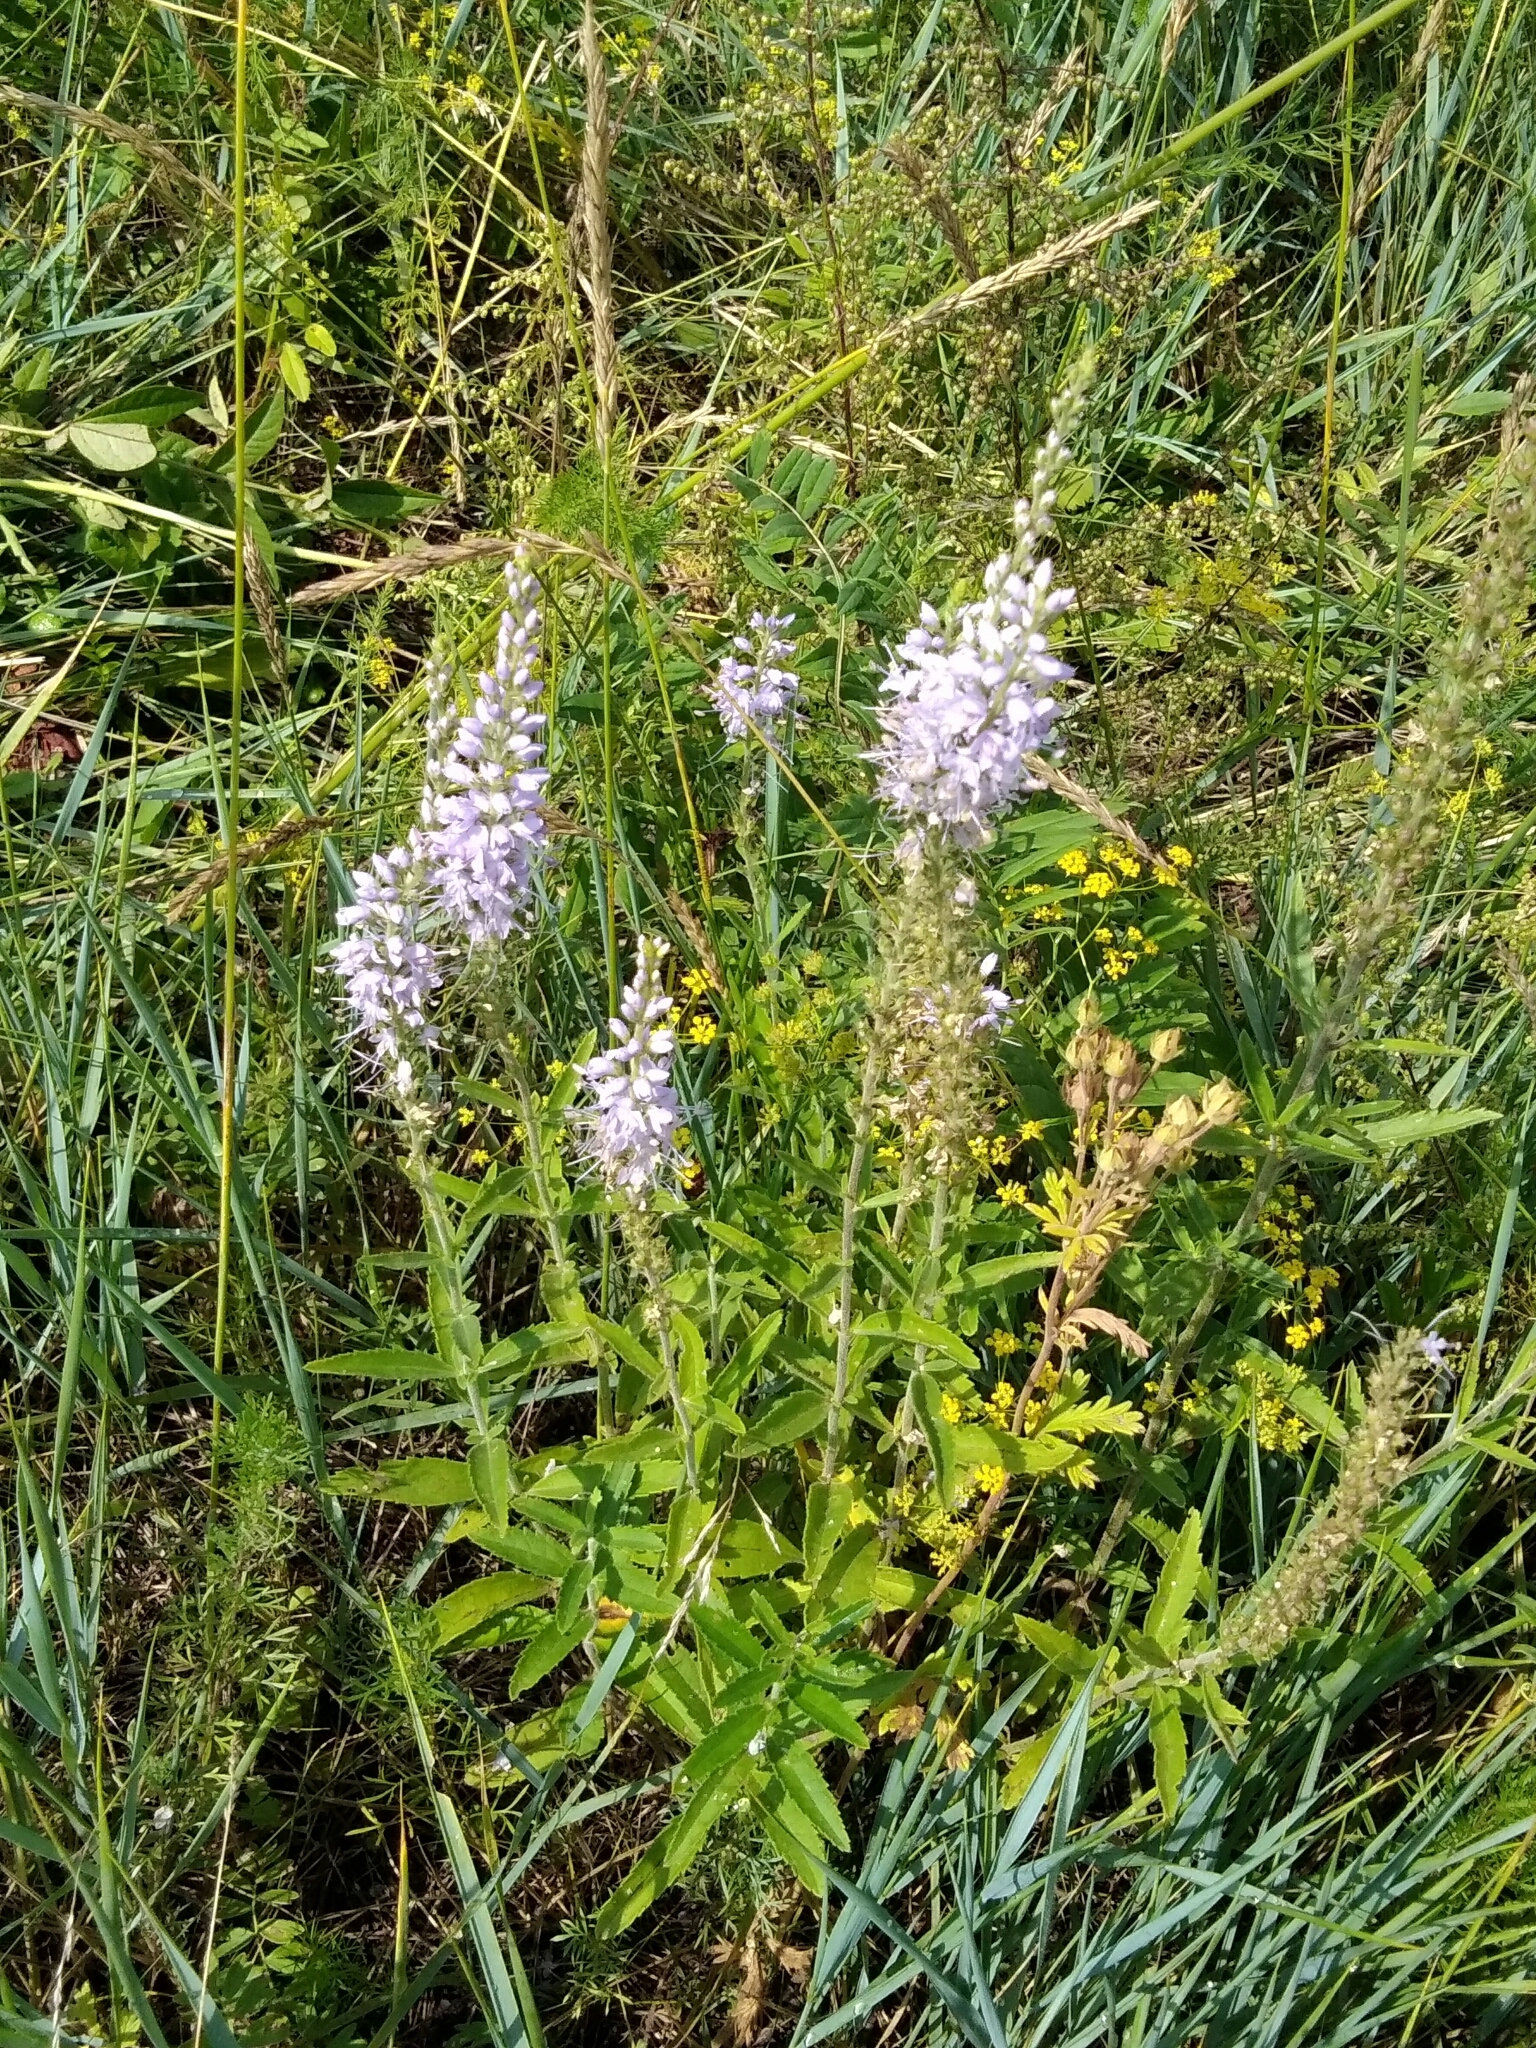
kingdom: Plantae
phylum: Tracheophyta
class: Magnoliopsida
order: Lamiales
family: Plantaginaceae
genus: Veronica
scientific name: Veronica daurica
